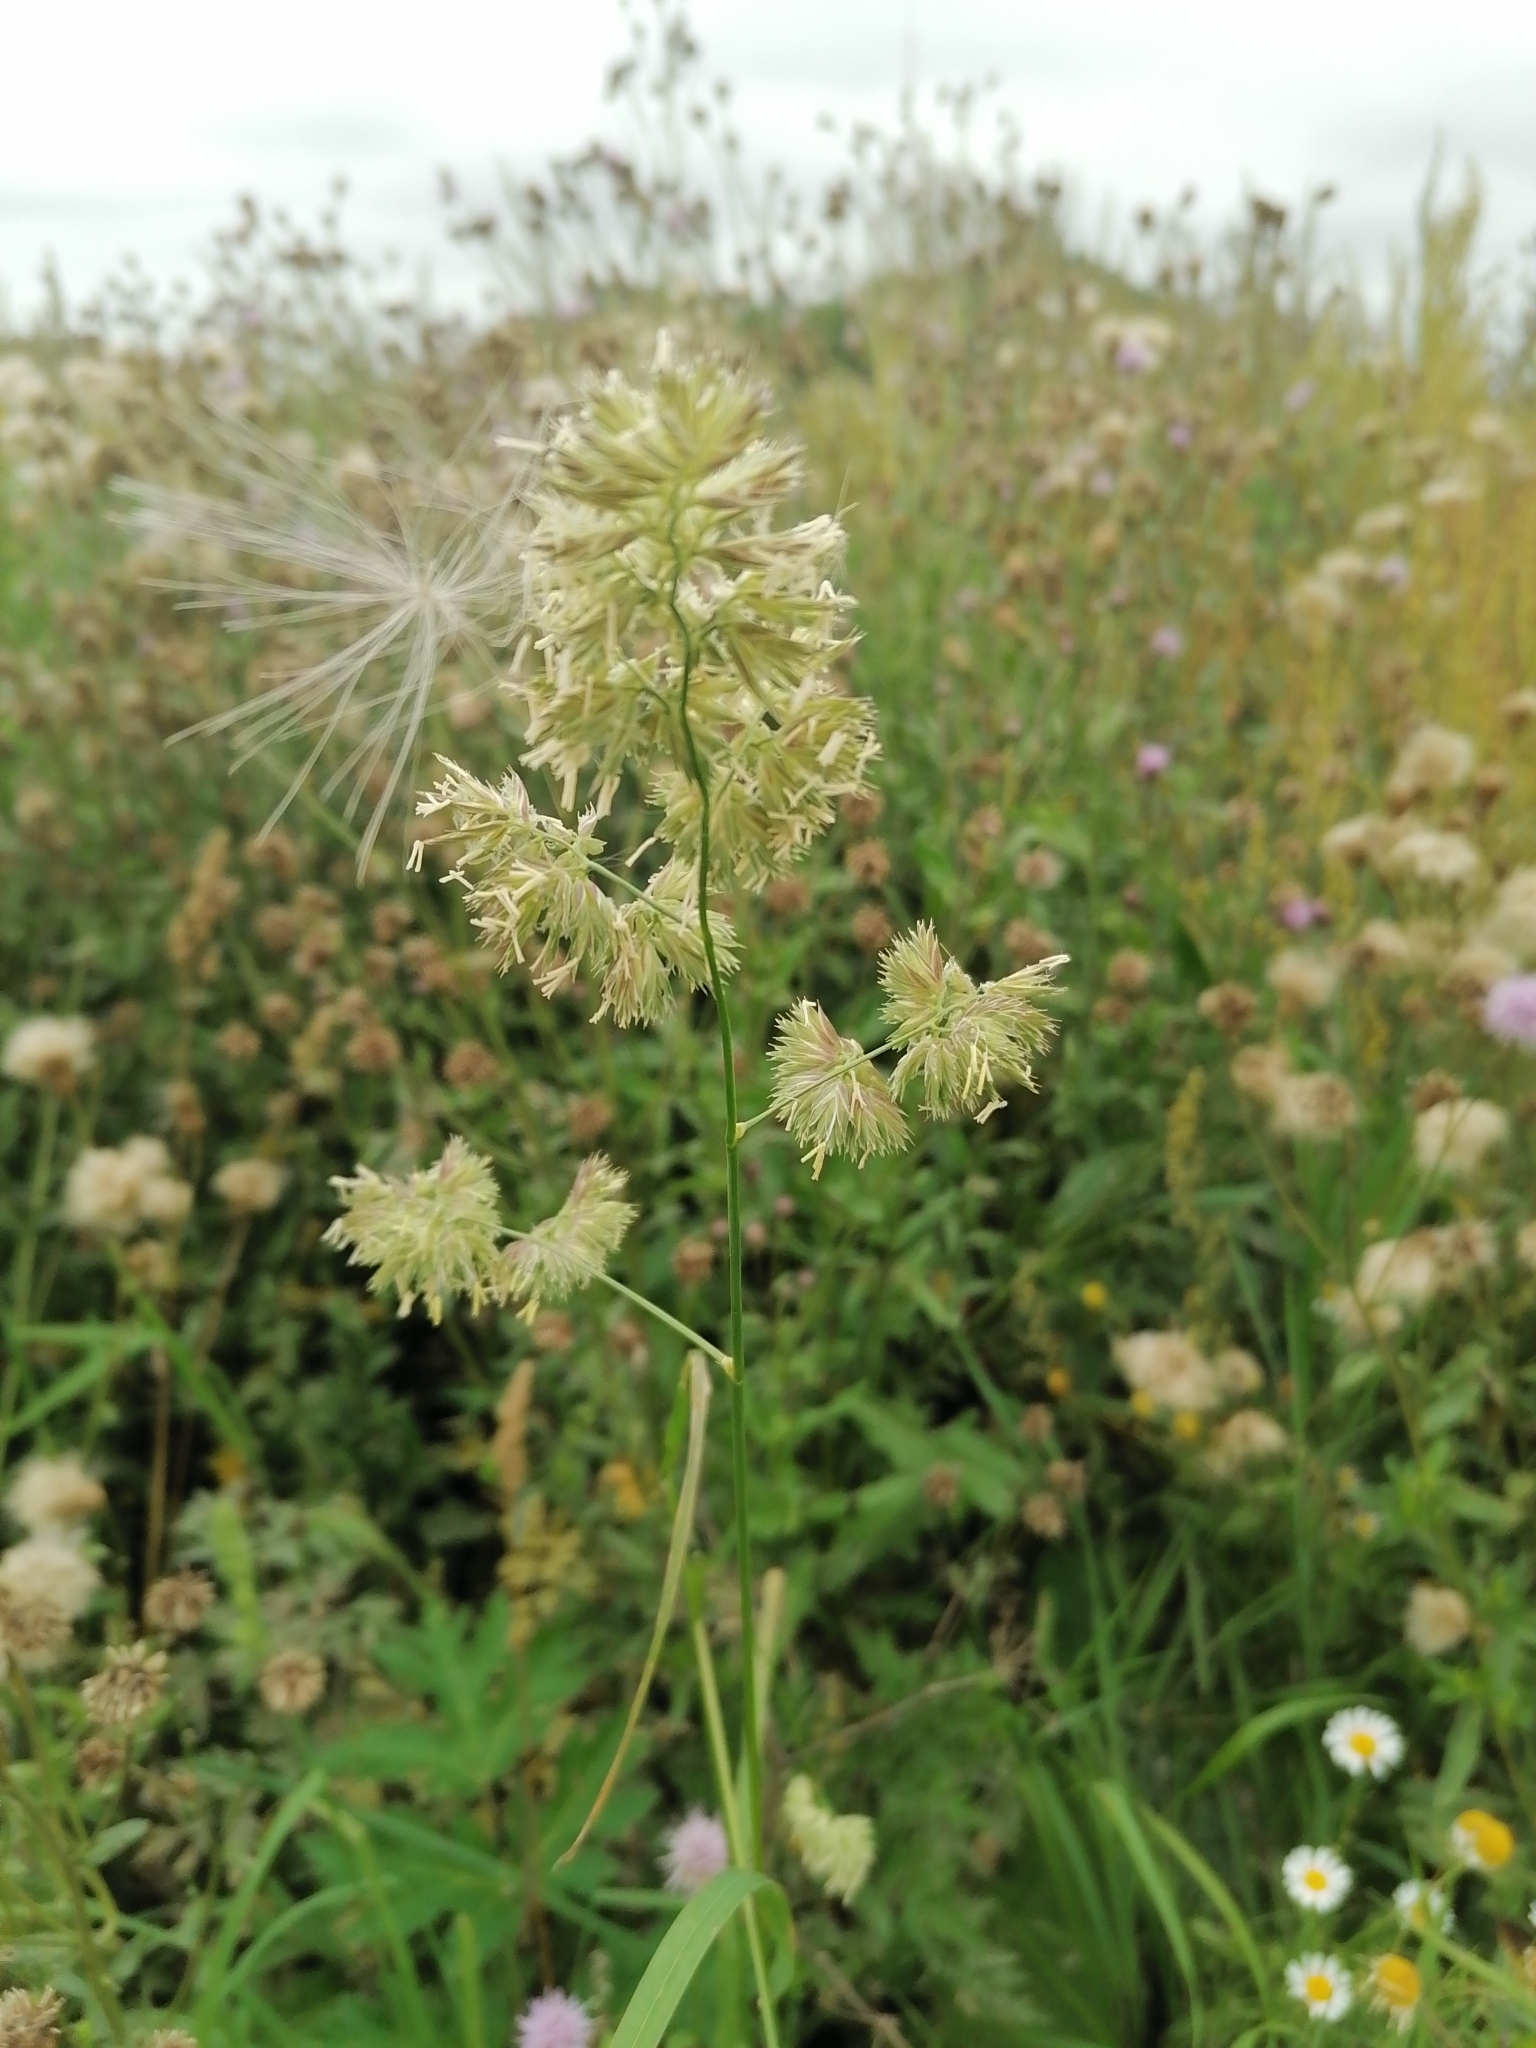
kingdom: Plantae
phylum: Tracheophyta
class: Liliopsida
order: Poales
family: Poaceae
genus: Dactylis
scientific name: Dactylis glomerata
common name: Orchardgrass
